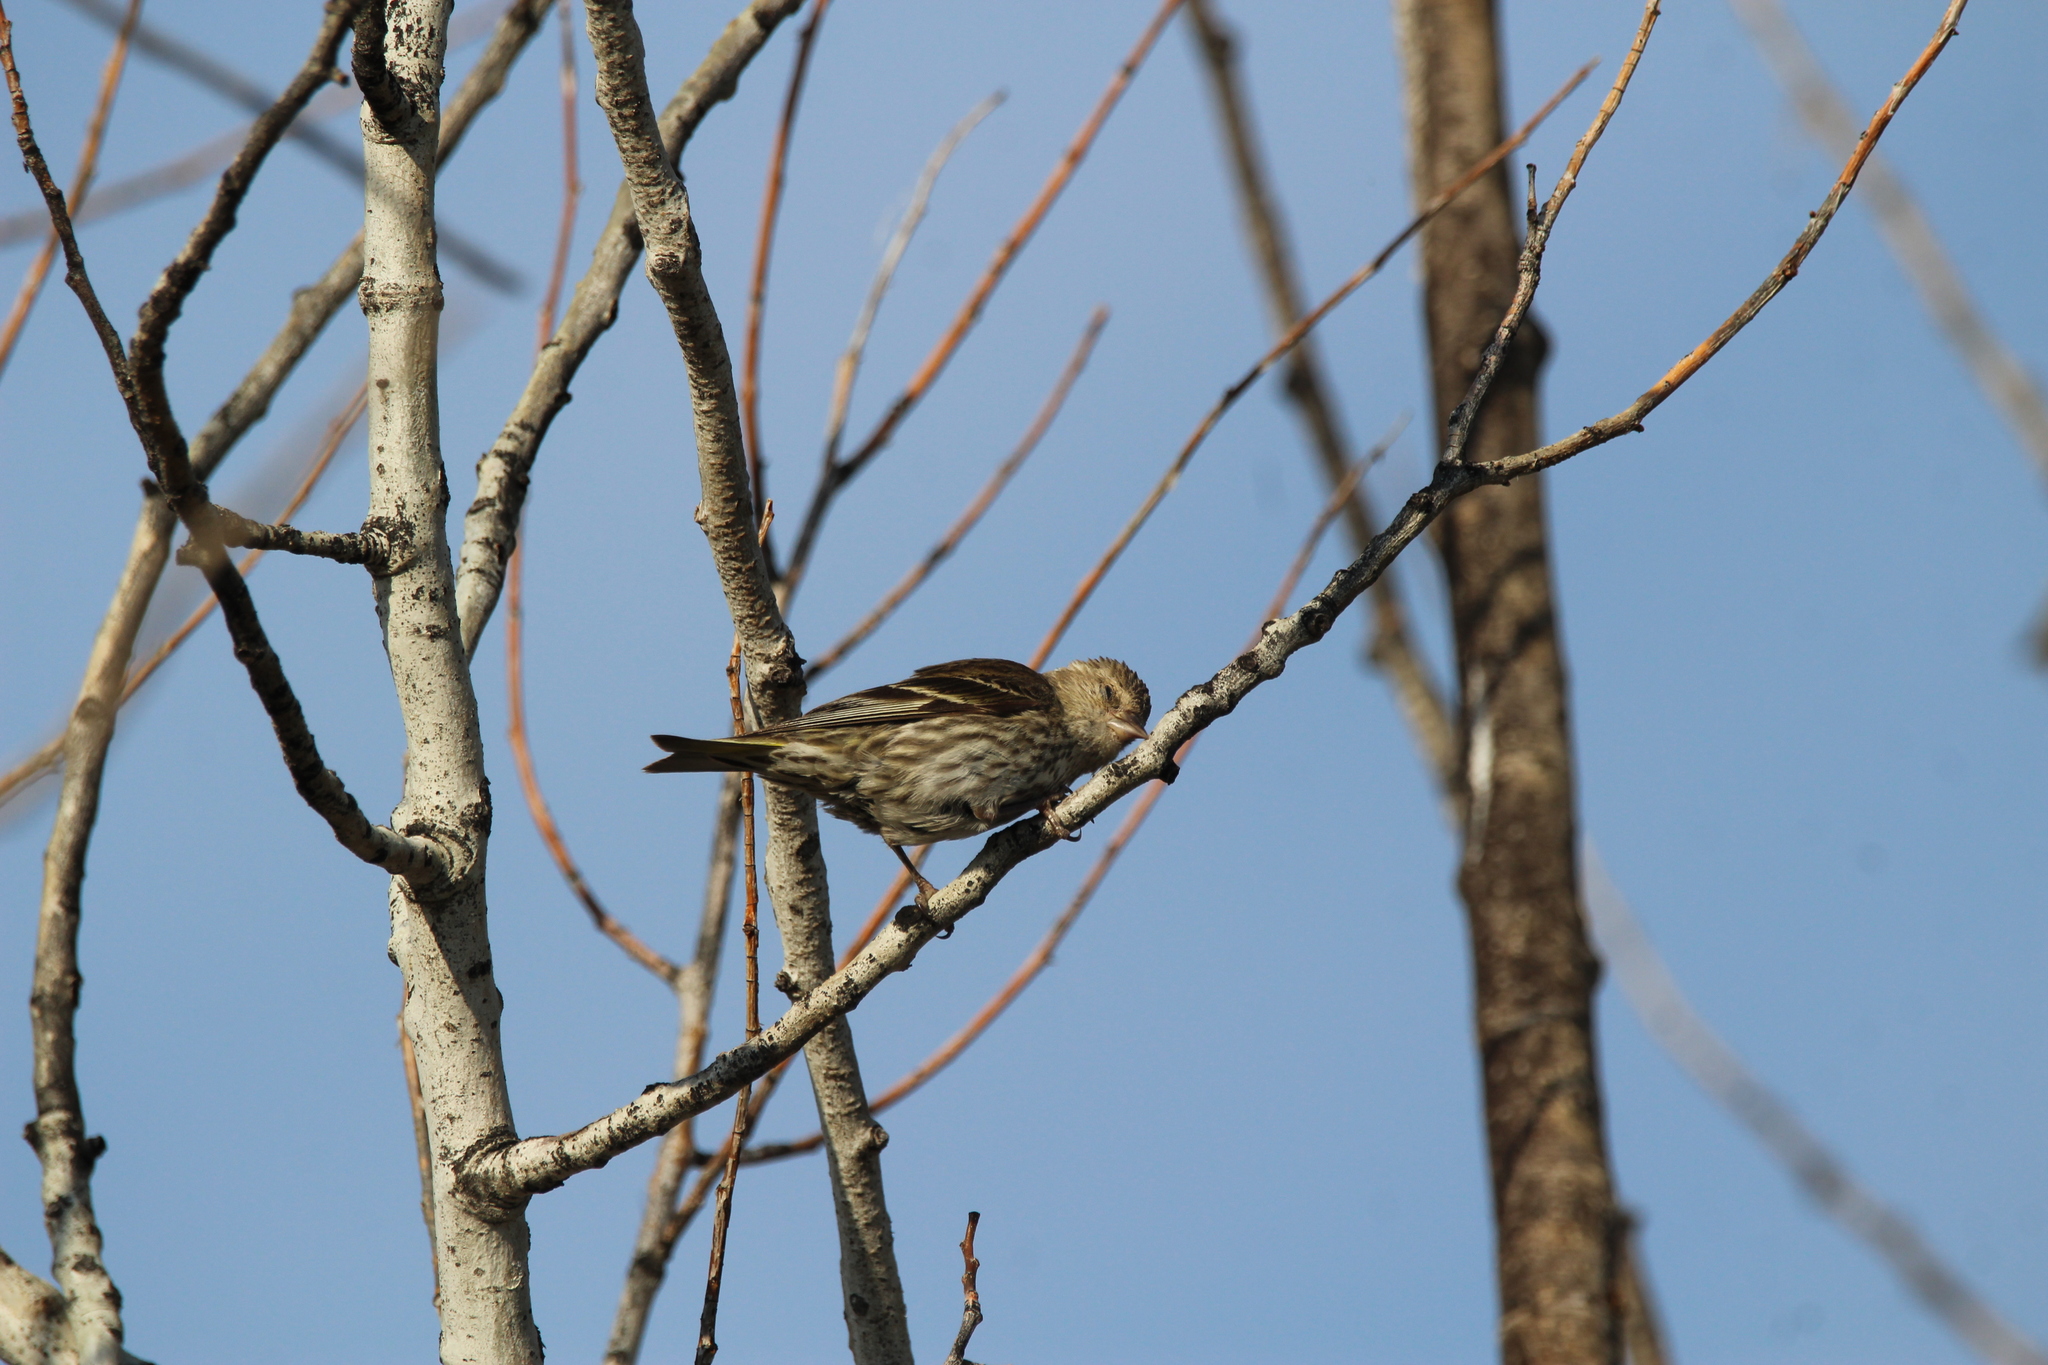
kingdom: Animalia
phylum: Chordata
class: Aves
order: Passeriformes
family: Fringillidae
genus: Spinus
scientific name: Spinus pinus
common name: Pine siskin
